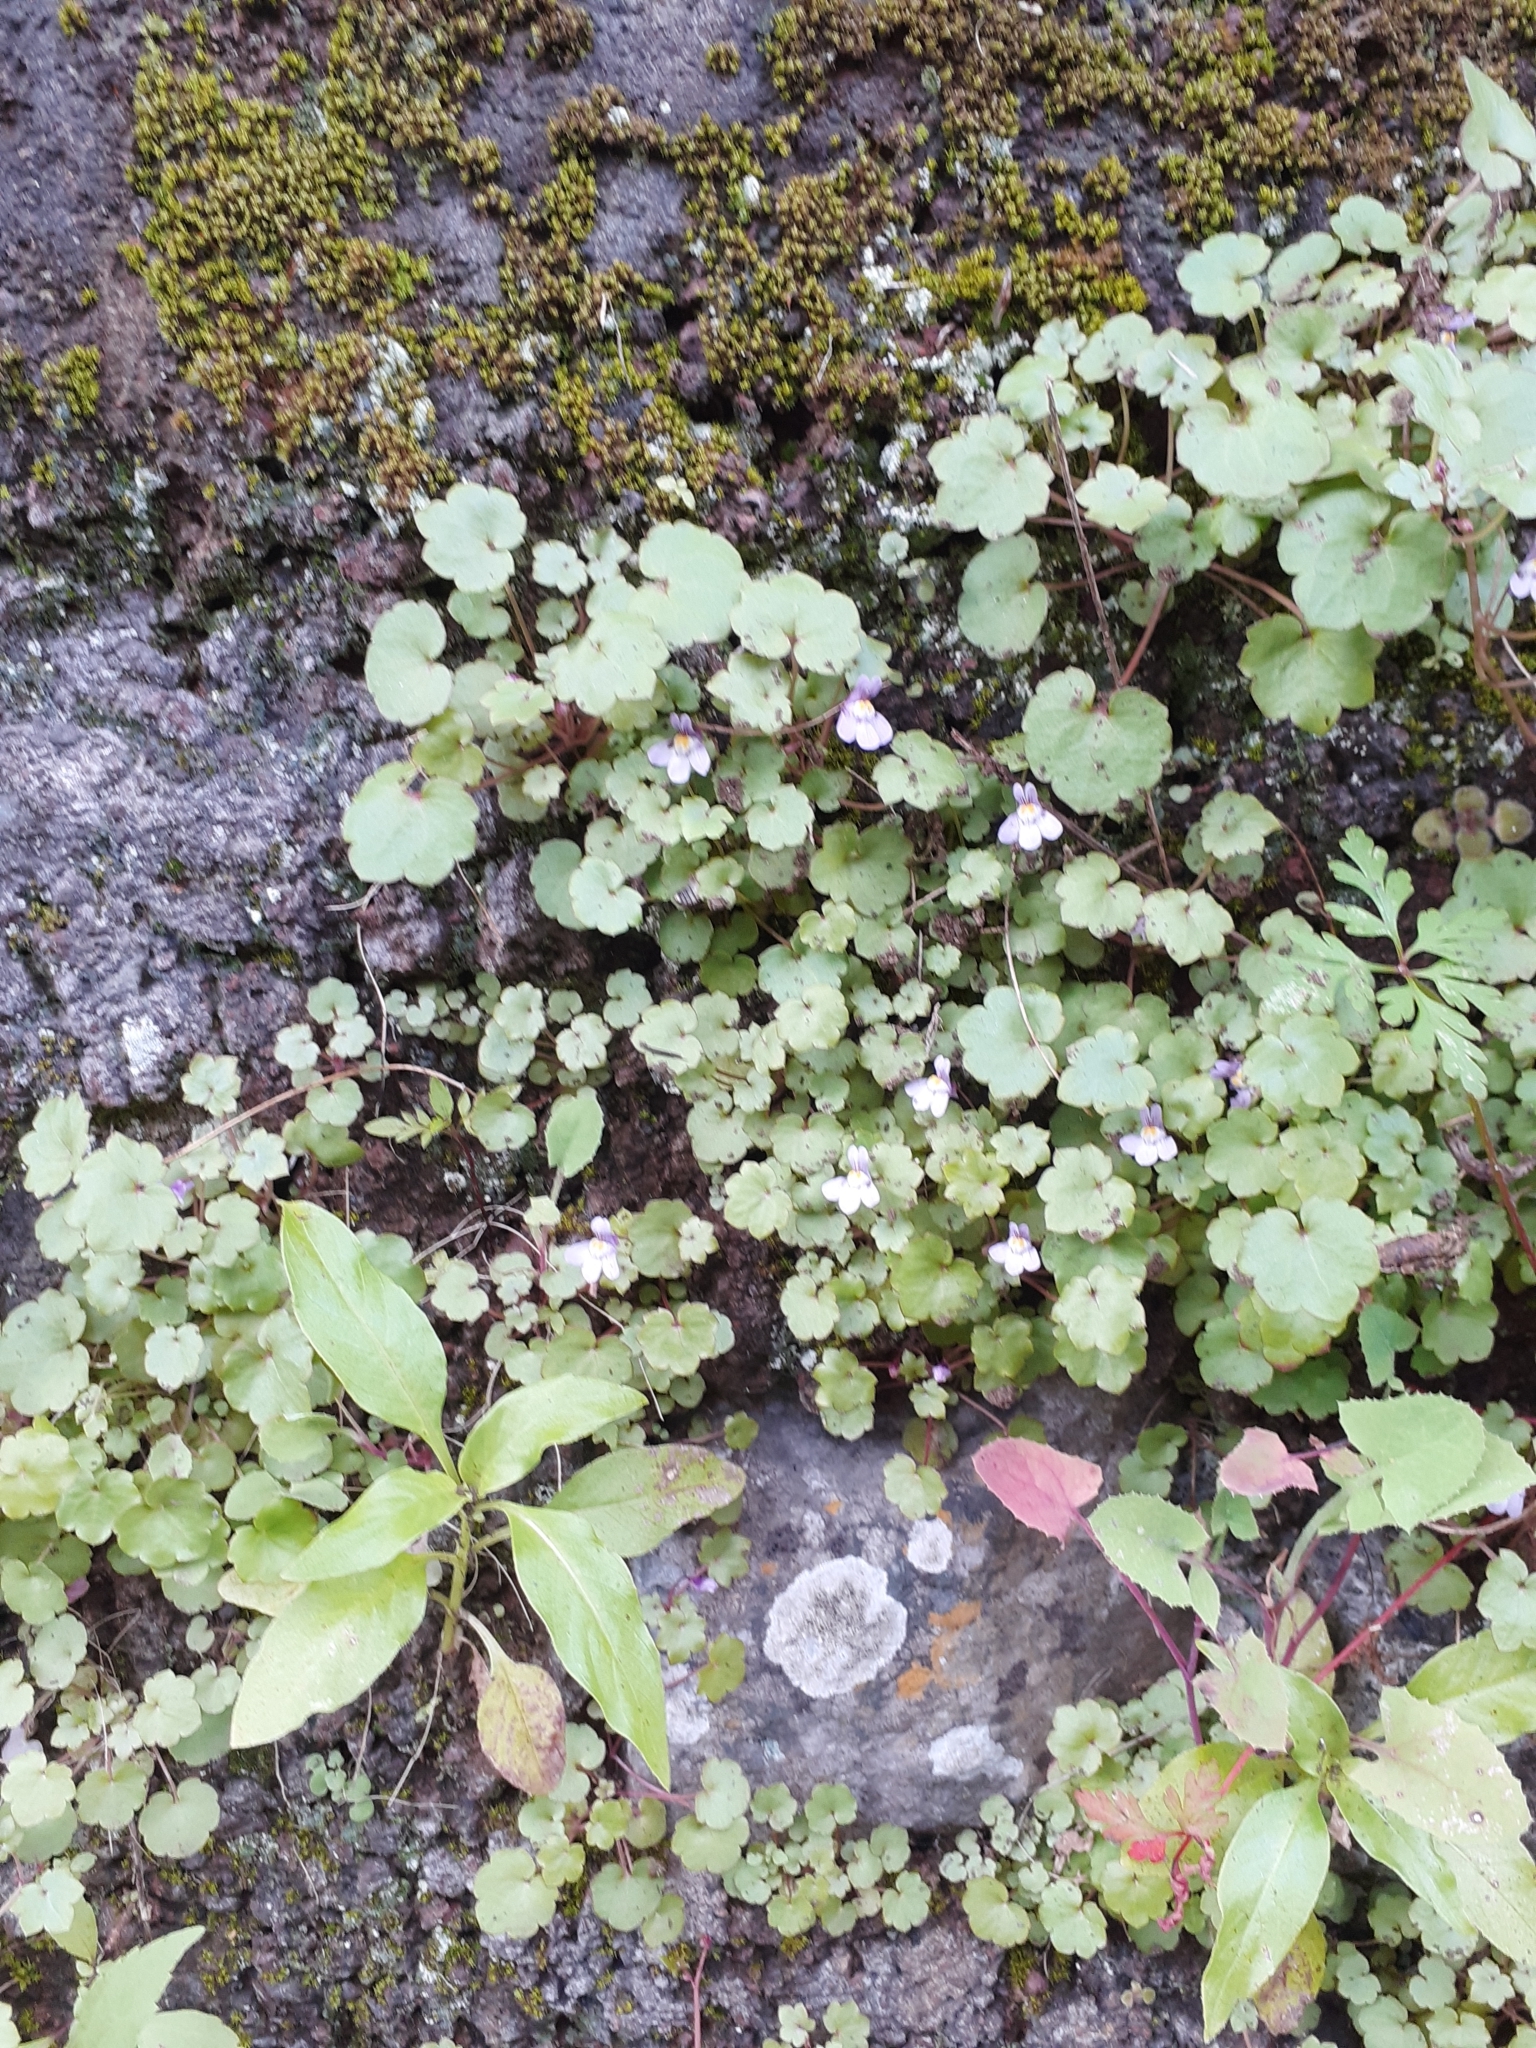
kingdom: Plantae
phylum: Tracheophyta
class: Magnoliopsida
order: Lamiales
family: Plantaginaceae
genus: Cymbalaria
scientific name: Cymbalaria muralis
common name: Ivy-leaved toadflax
